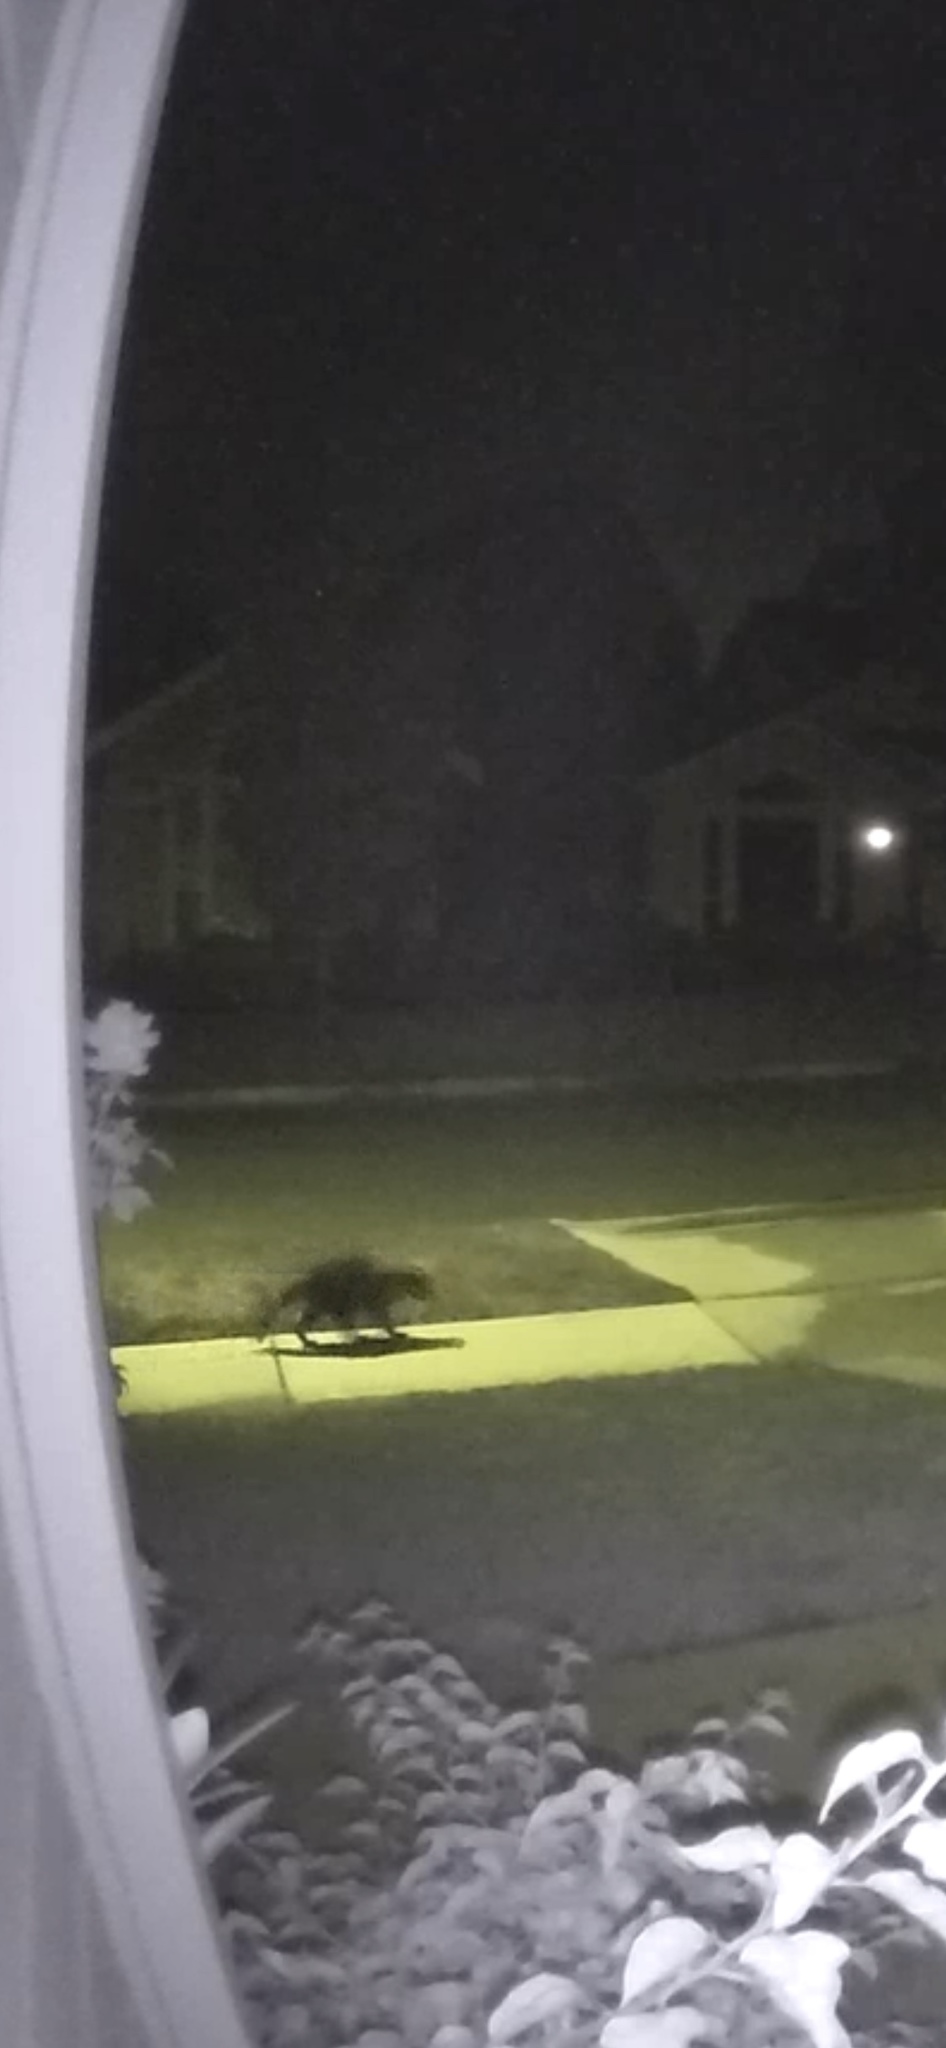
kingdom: Animalia
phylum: Chordata
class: Mammalia
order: Carnivora
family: Procyonidae
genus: Procyon
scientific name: Procyon lotor
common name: Raccoon
